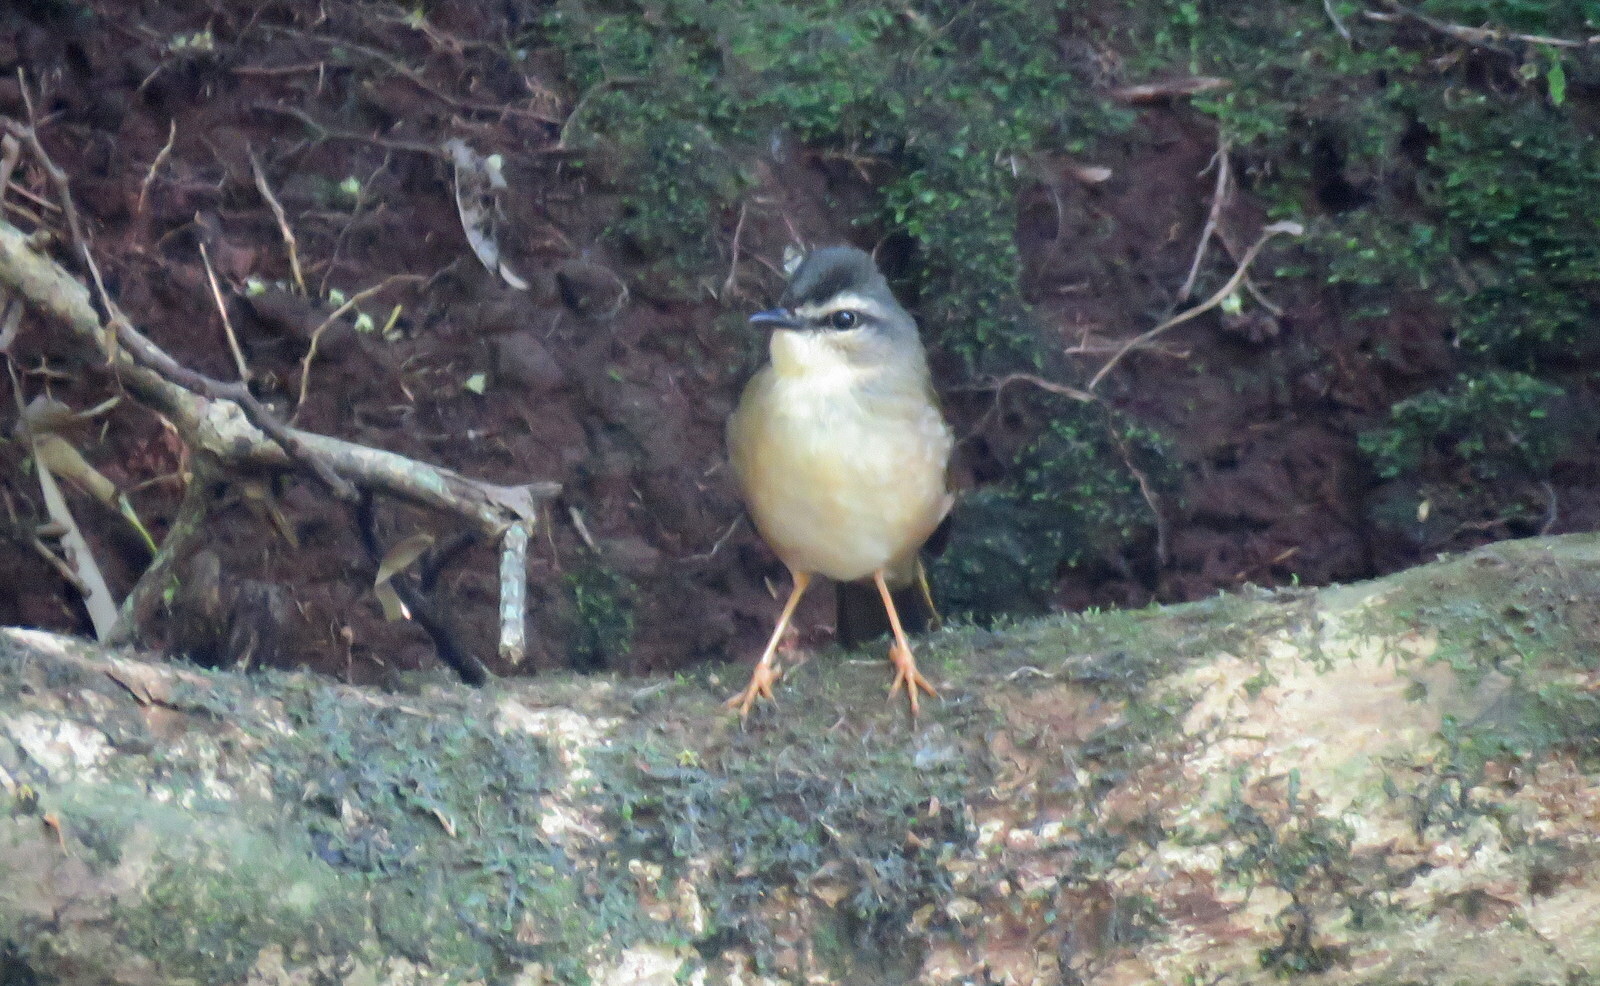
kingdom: Animalia
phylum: Chordata
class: Aves
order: Passeriformes
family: Parulidae
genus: Myiothlypis
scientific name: Myiothlypis rivularis
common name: Riverbank warbler
